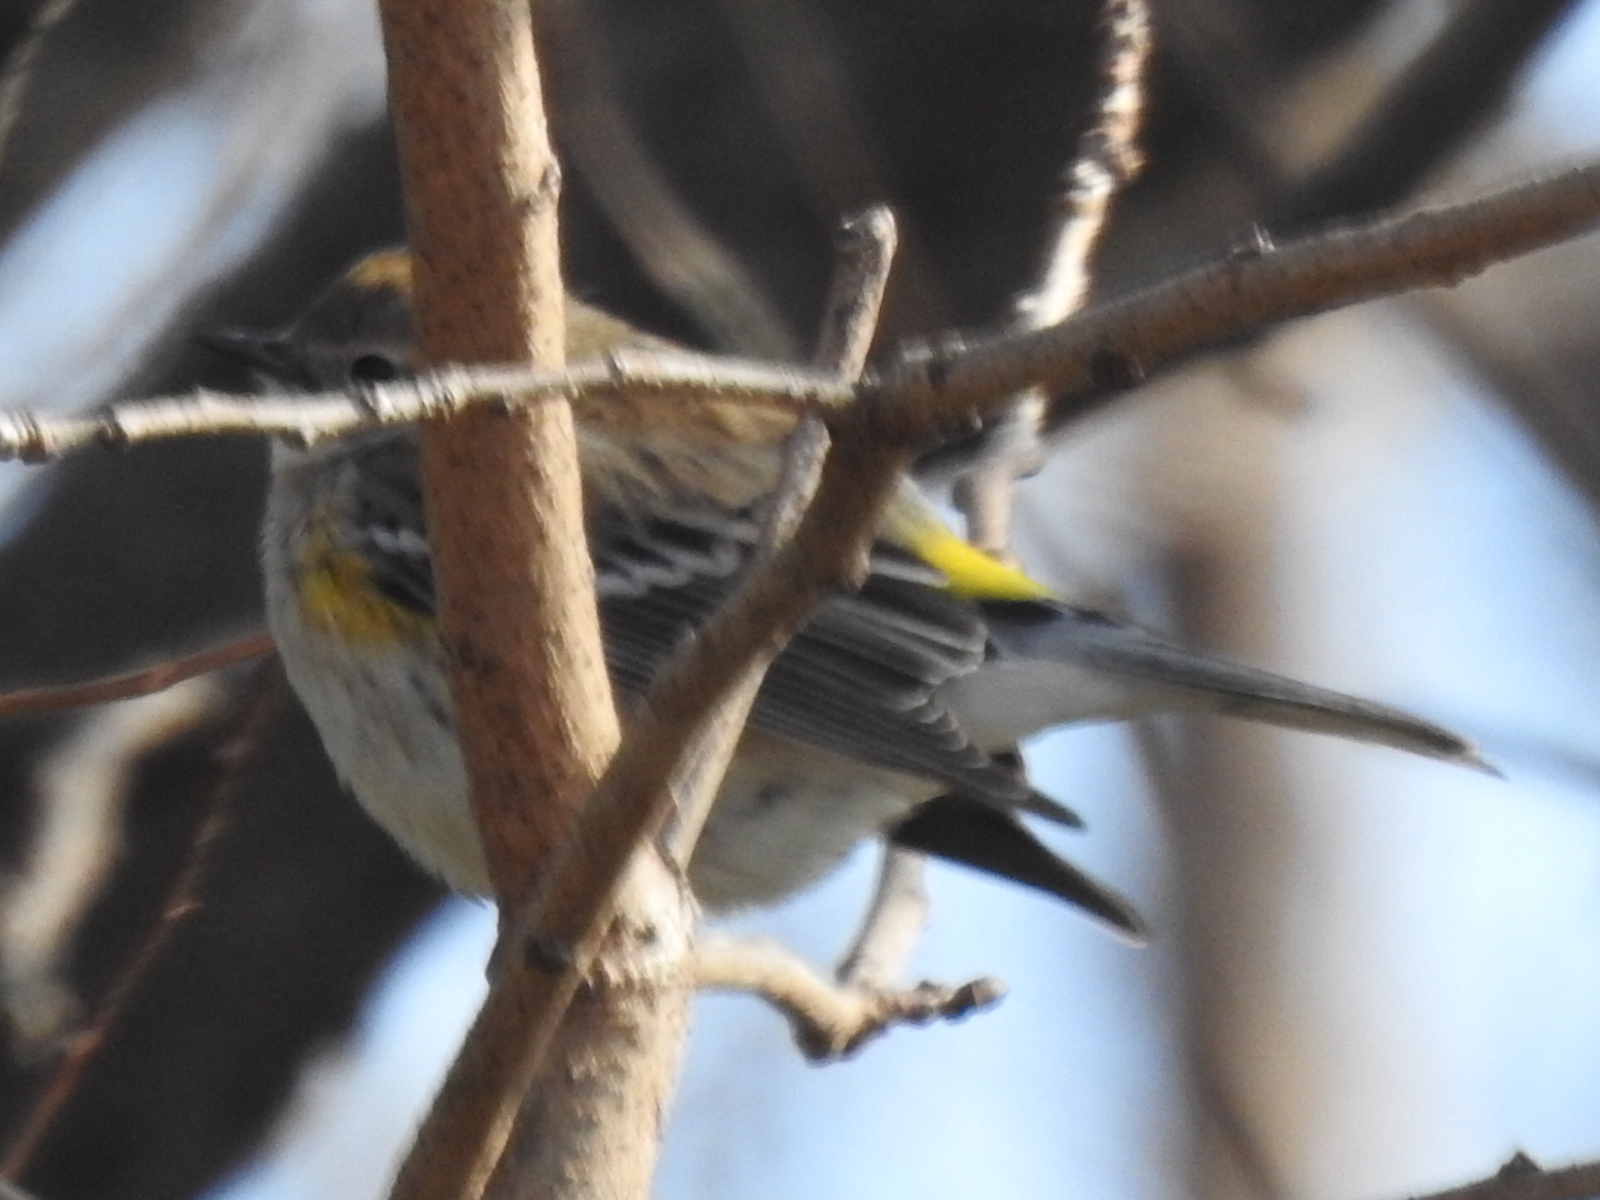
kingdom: Animalia
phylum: Chordata
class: Aves
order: Passeriformes
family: Parulidae
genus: Setophaga
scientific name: Setophaga coronata
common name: Myrtle warbler
